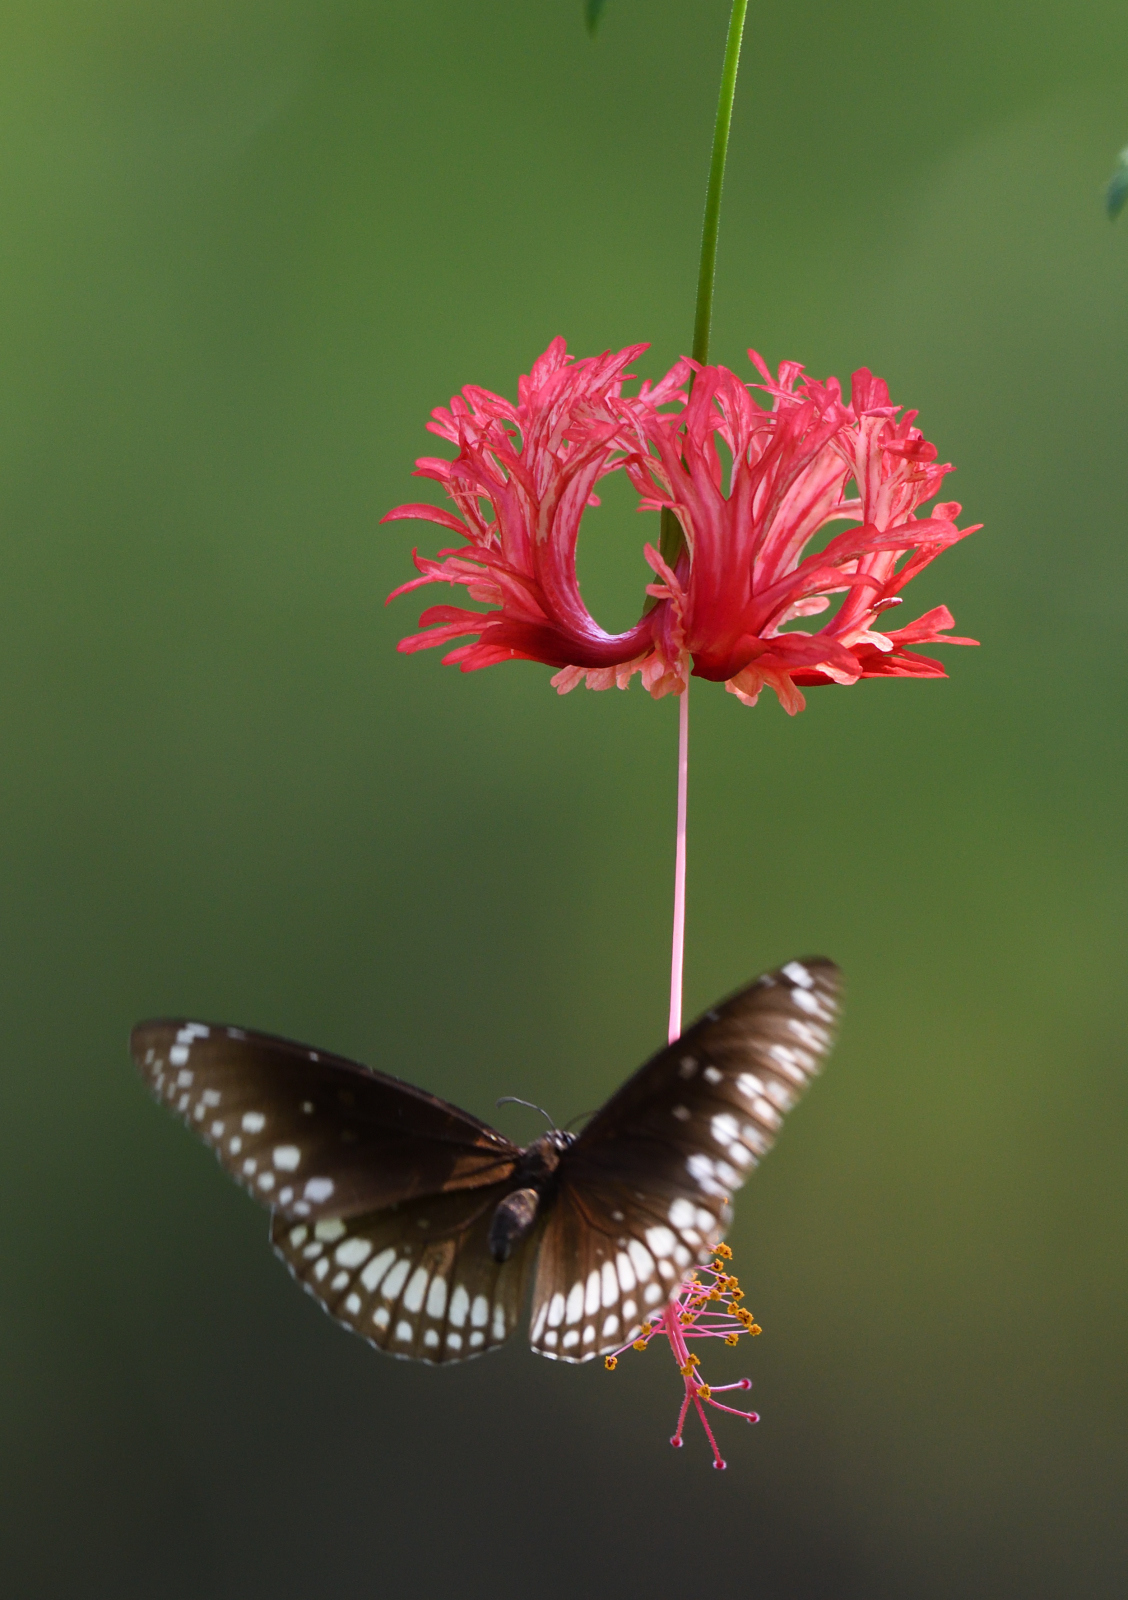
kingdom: Animalia
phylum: Arthropoda
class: Insecta
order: Lepidoptera
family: Nymphalidae
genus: Euploea
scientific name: Euploea core
